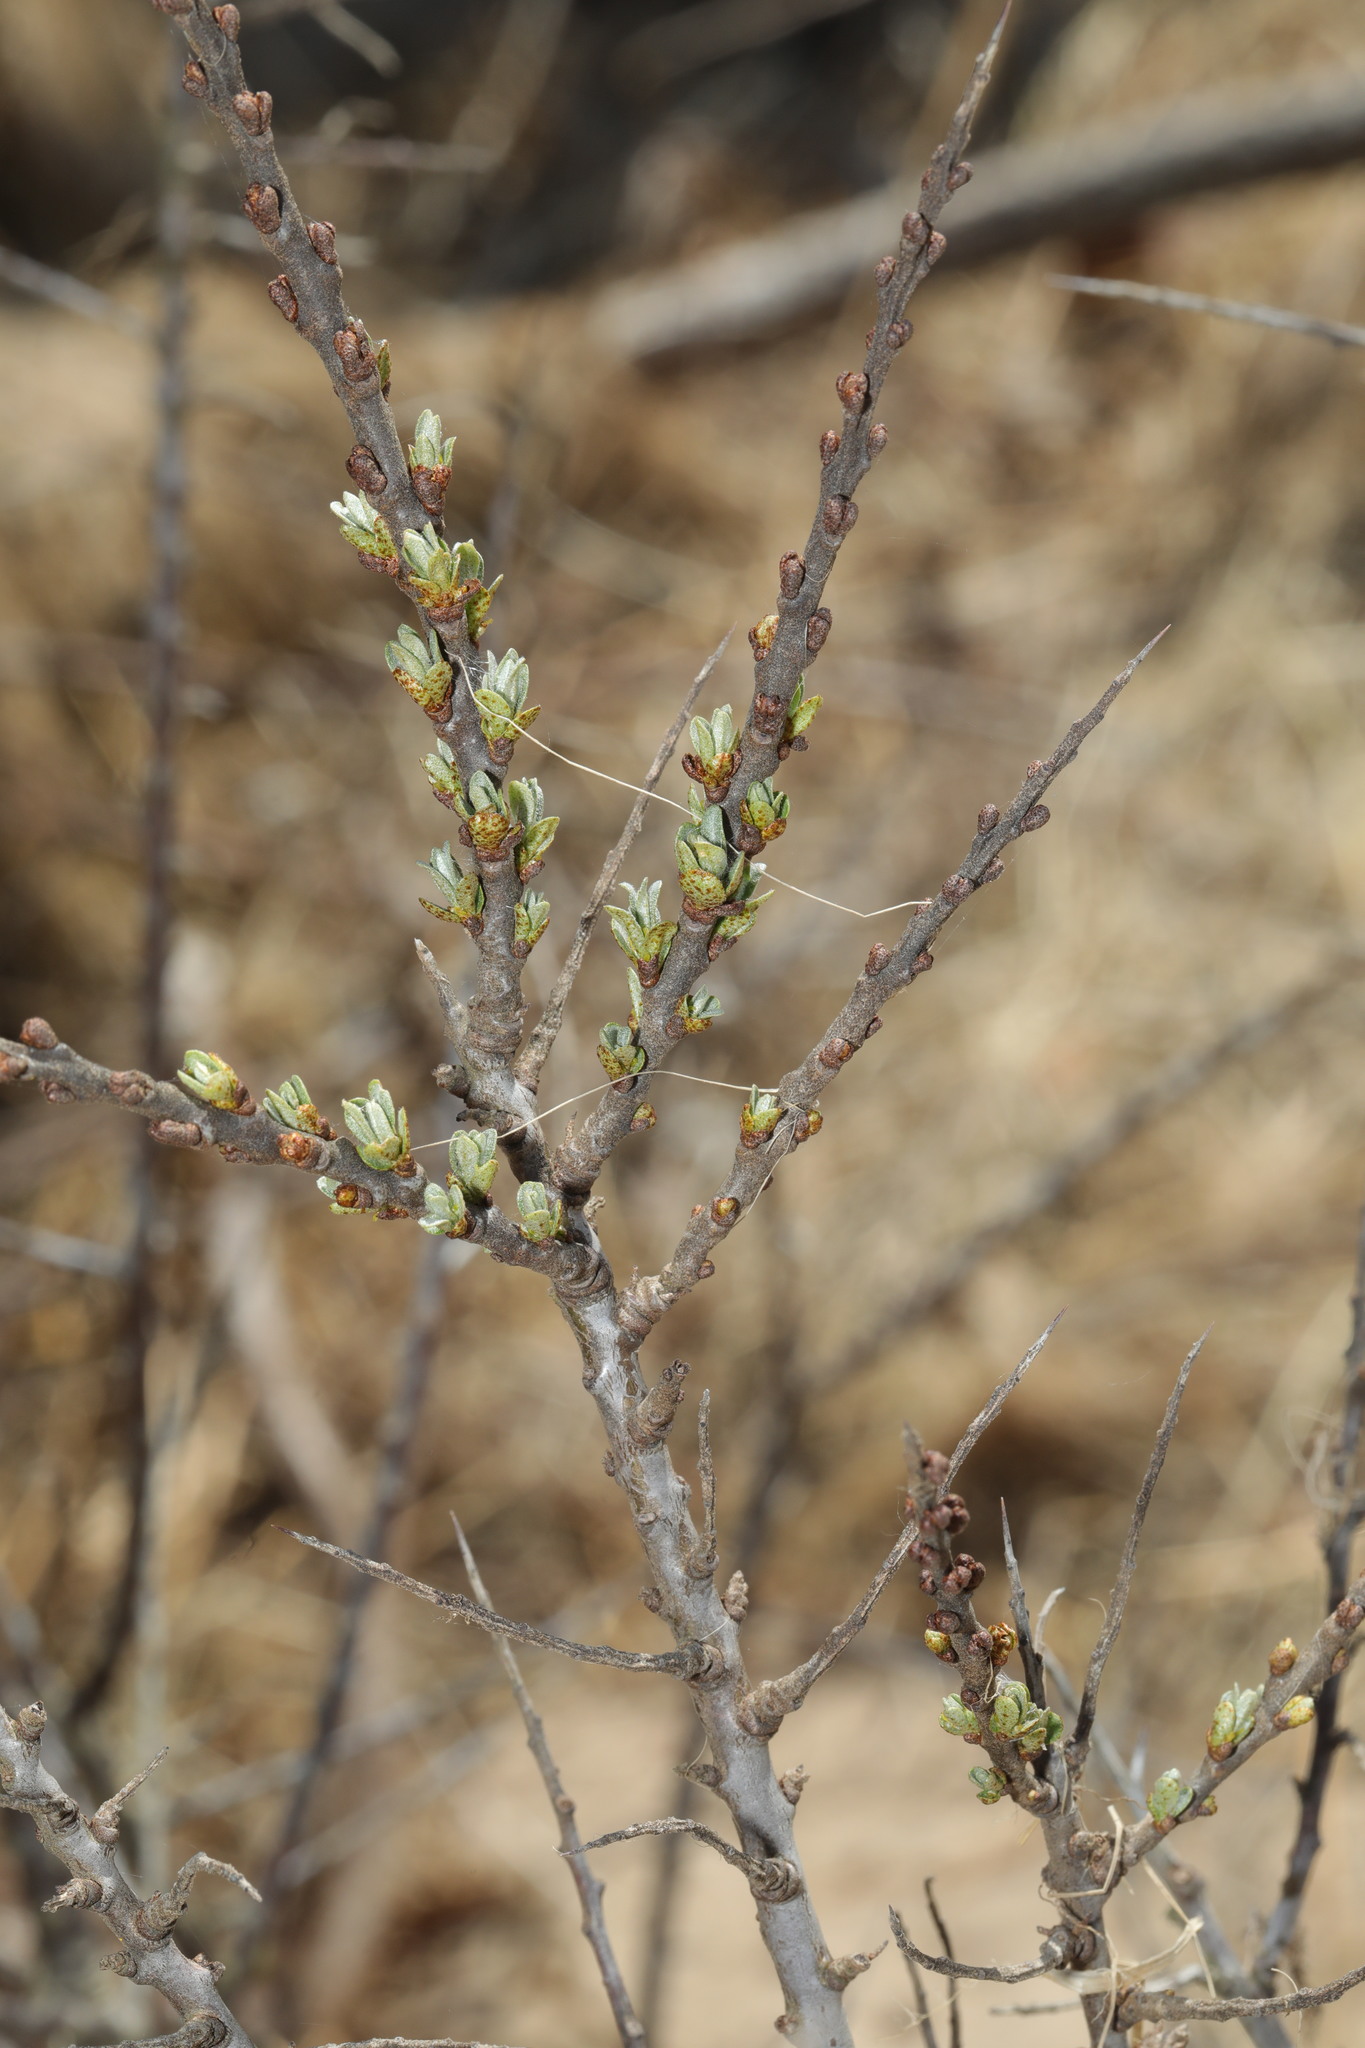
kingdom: Plantae
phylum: Tracheophyta
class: Magnoliopsida
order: Rosales
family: Elaeagnaceae
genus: Hippophae
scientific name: Hippophae rhamnoides
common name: Sea-buckthorn
